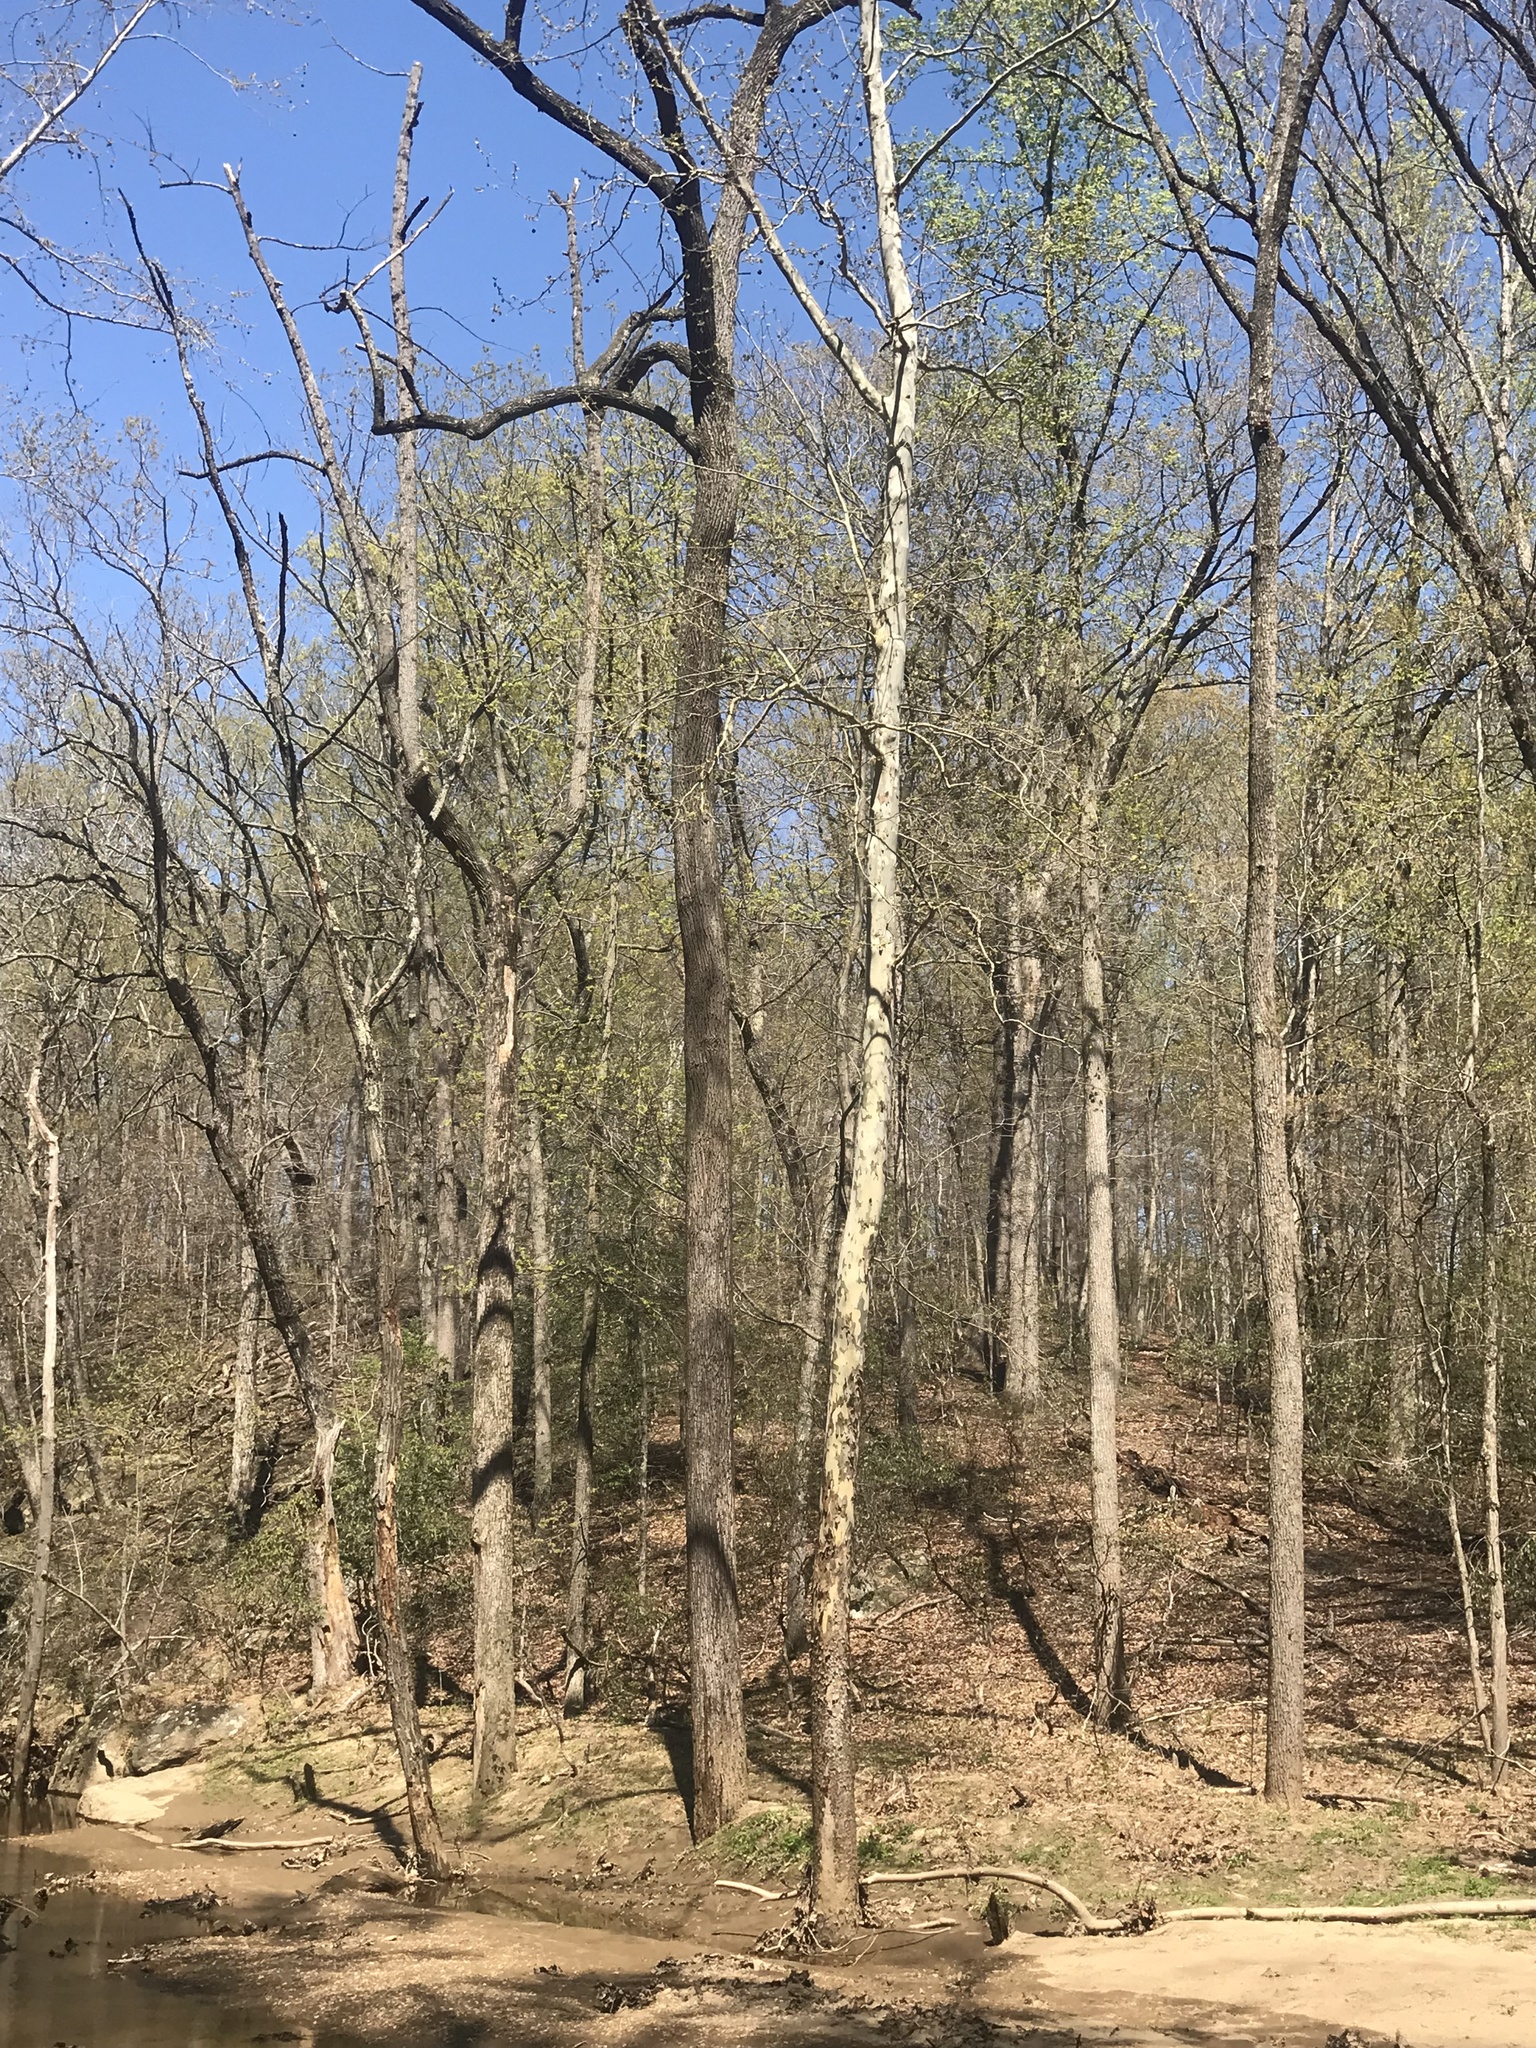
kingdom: Plantae
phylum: Tracheophyta
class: Magnoliopsida
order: Proteales
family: Platanaceae
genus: Platanus
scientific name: Platanus occidentalis
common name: American sycamore
